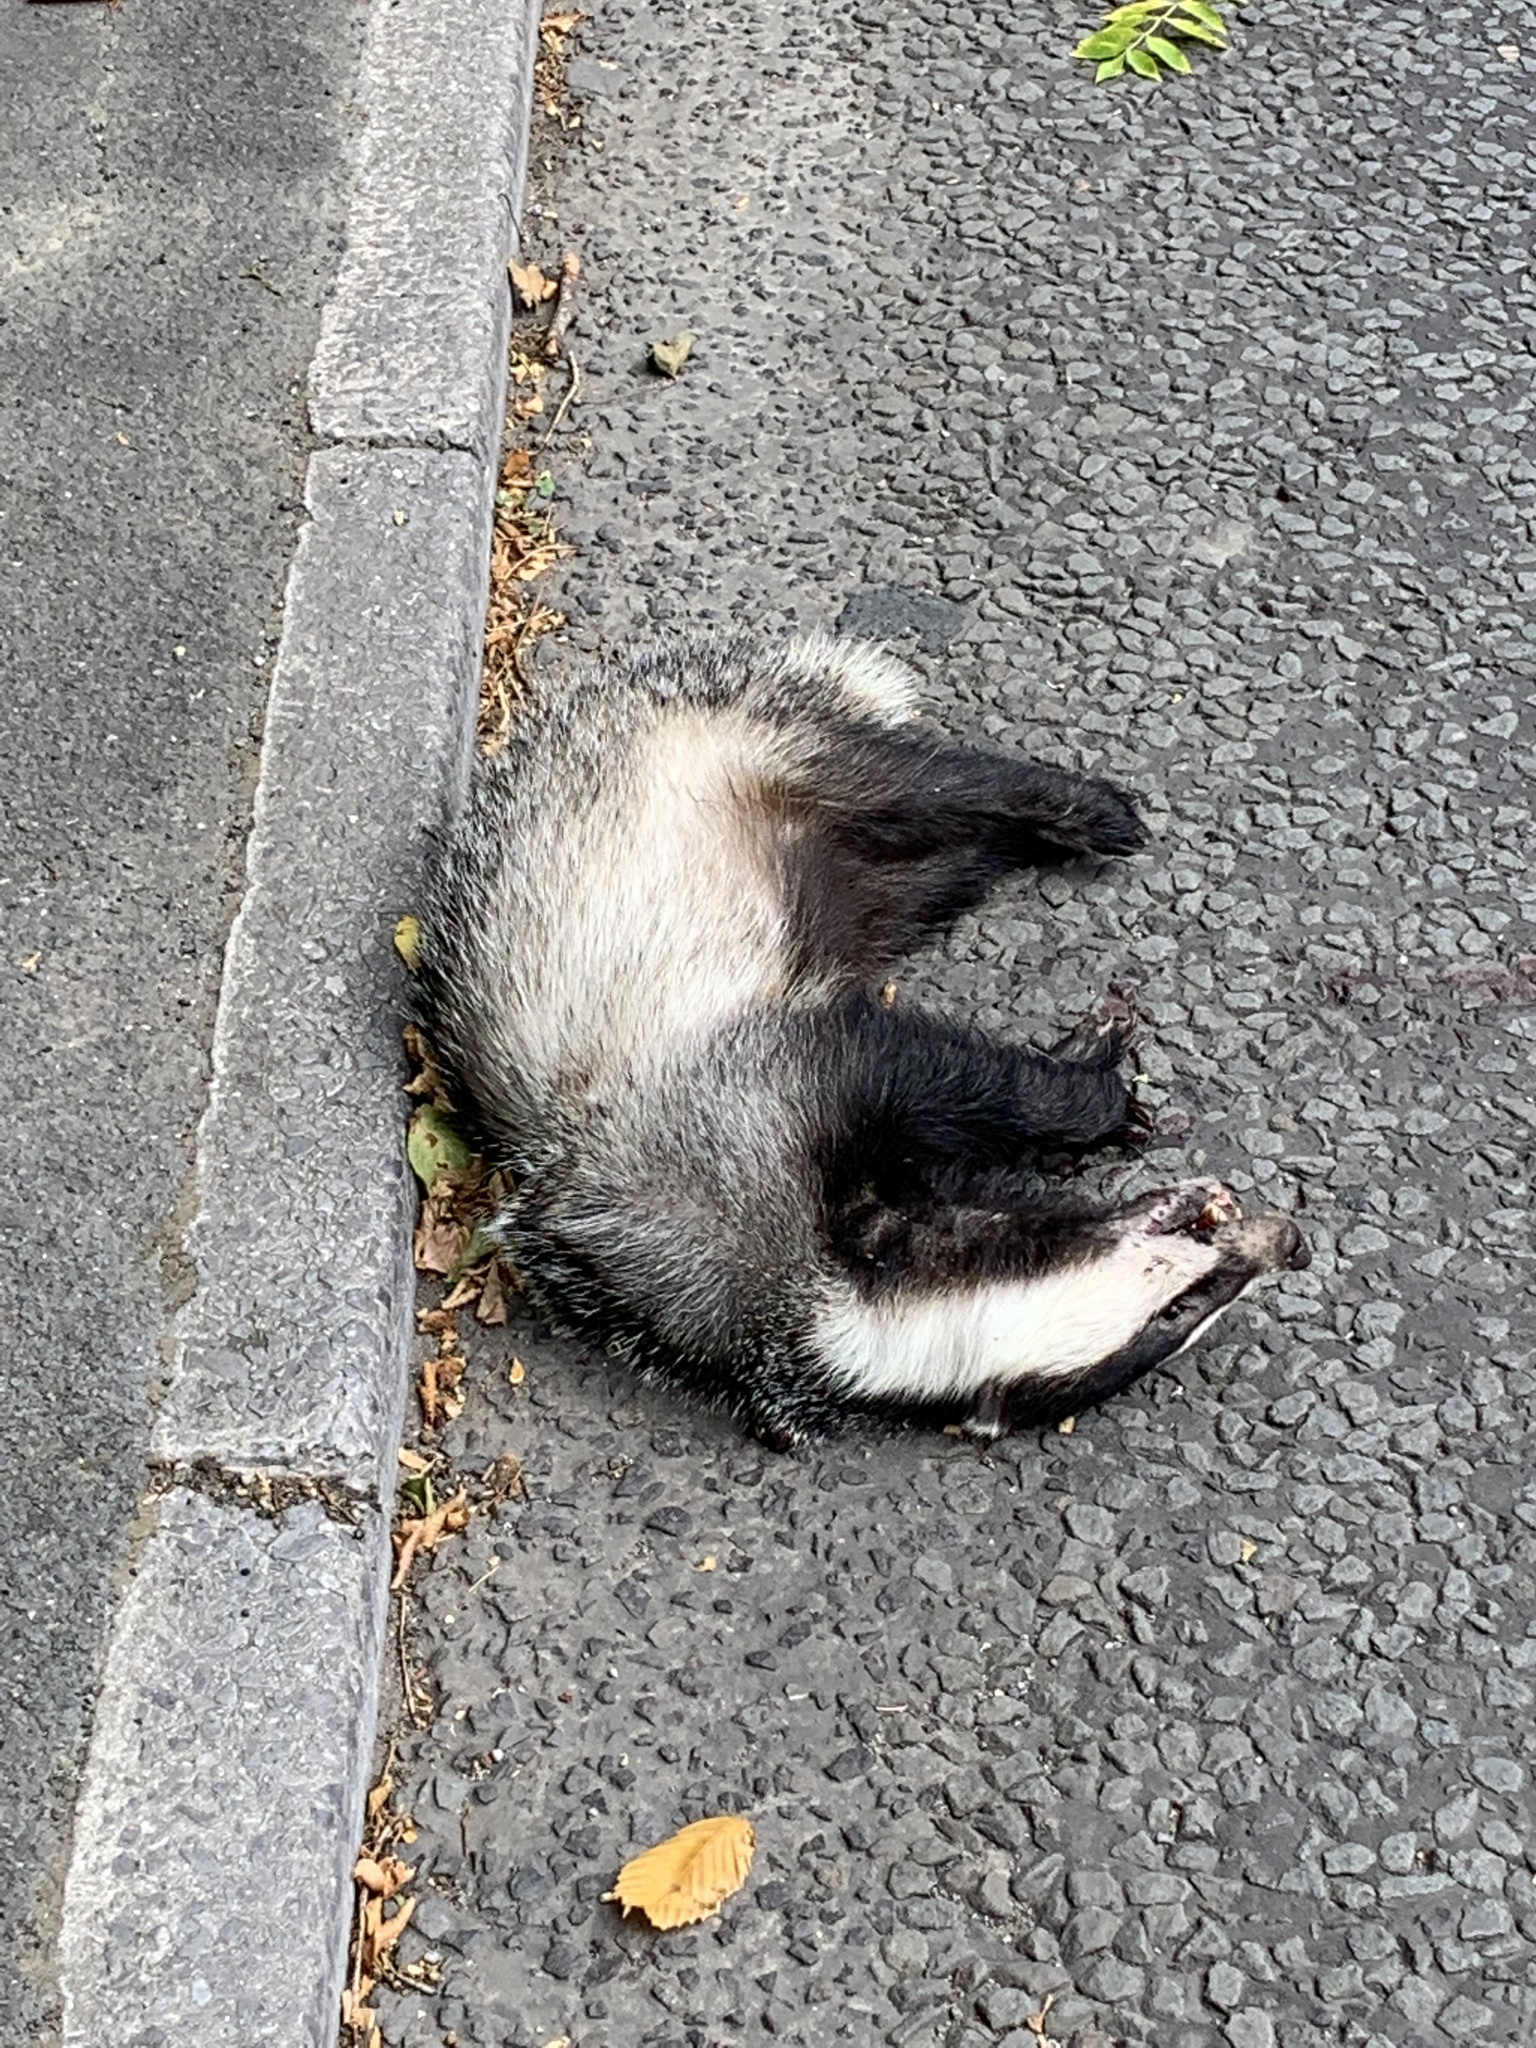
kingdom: Animalia
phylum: Chordata
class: Mammalia
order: Carnivora
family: Mustelidae
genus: Meles
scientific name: Meles meles
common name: Eurasian badger
